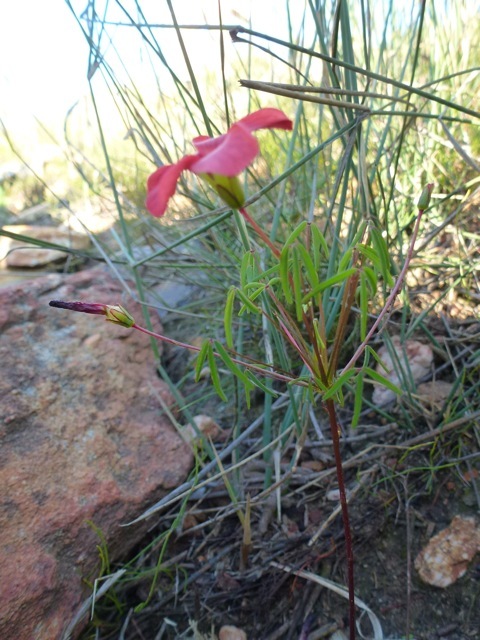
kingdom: Plantae
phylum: Tracheophyta
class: Magnoliopsida
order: Oxalidales
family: Oxalidaceae
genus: Oxalis
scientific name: Oxalis pendulifolia
